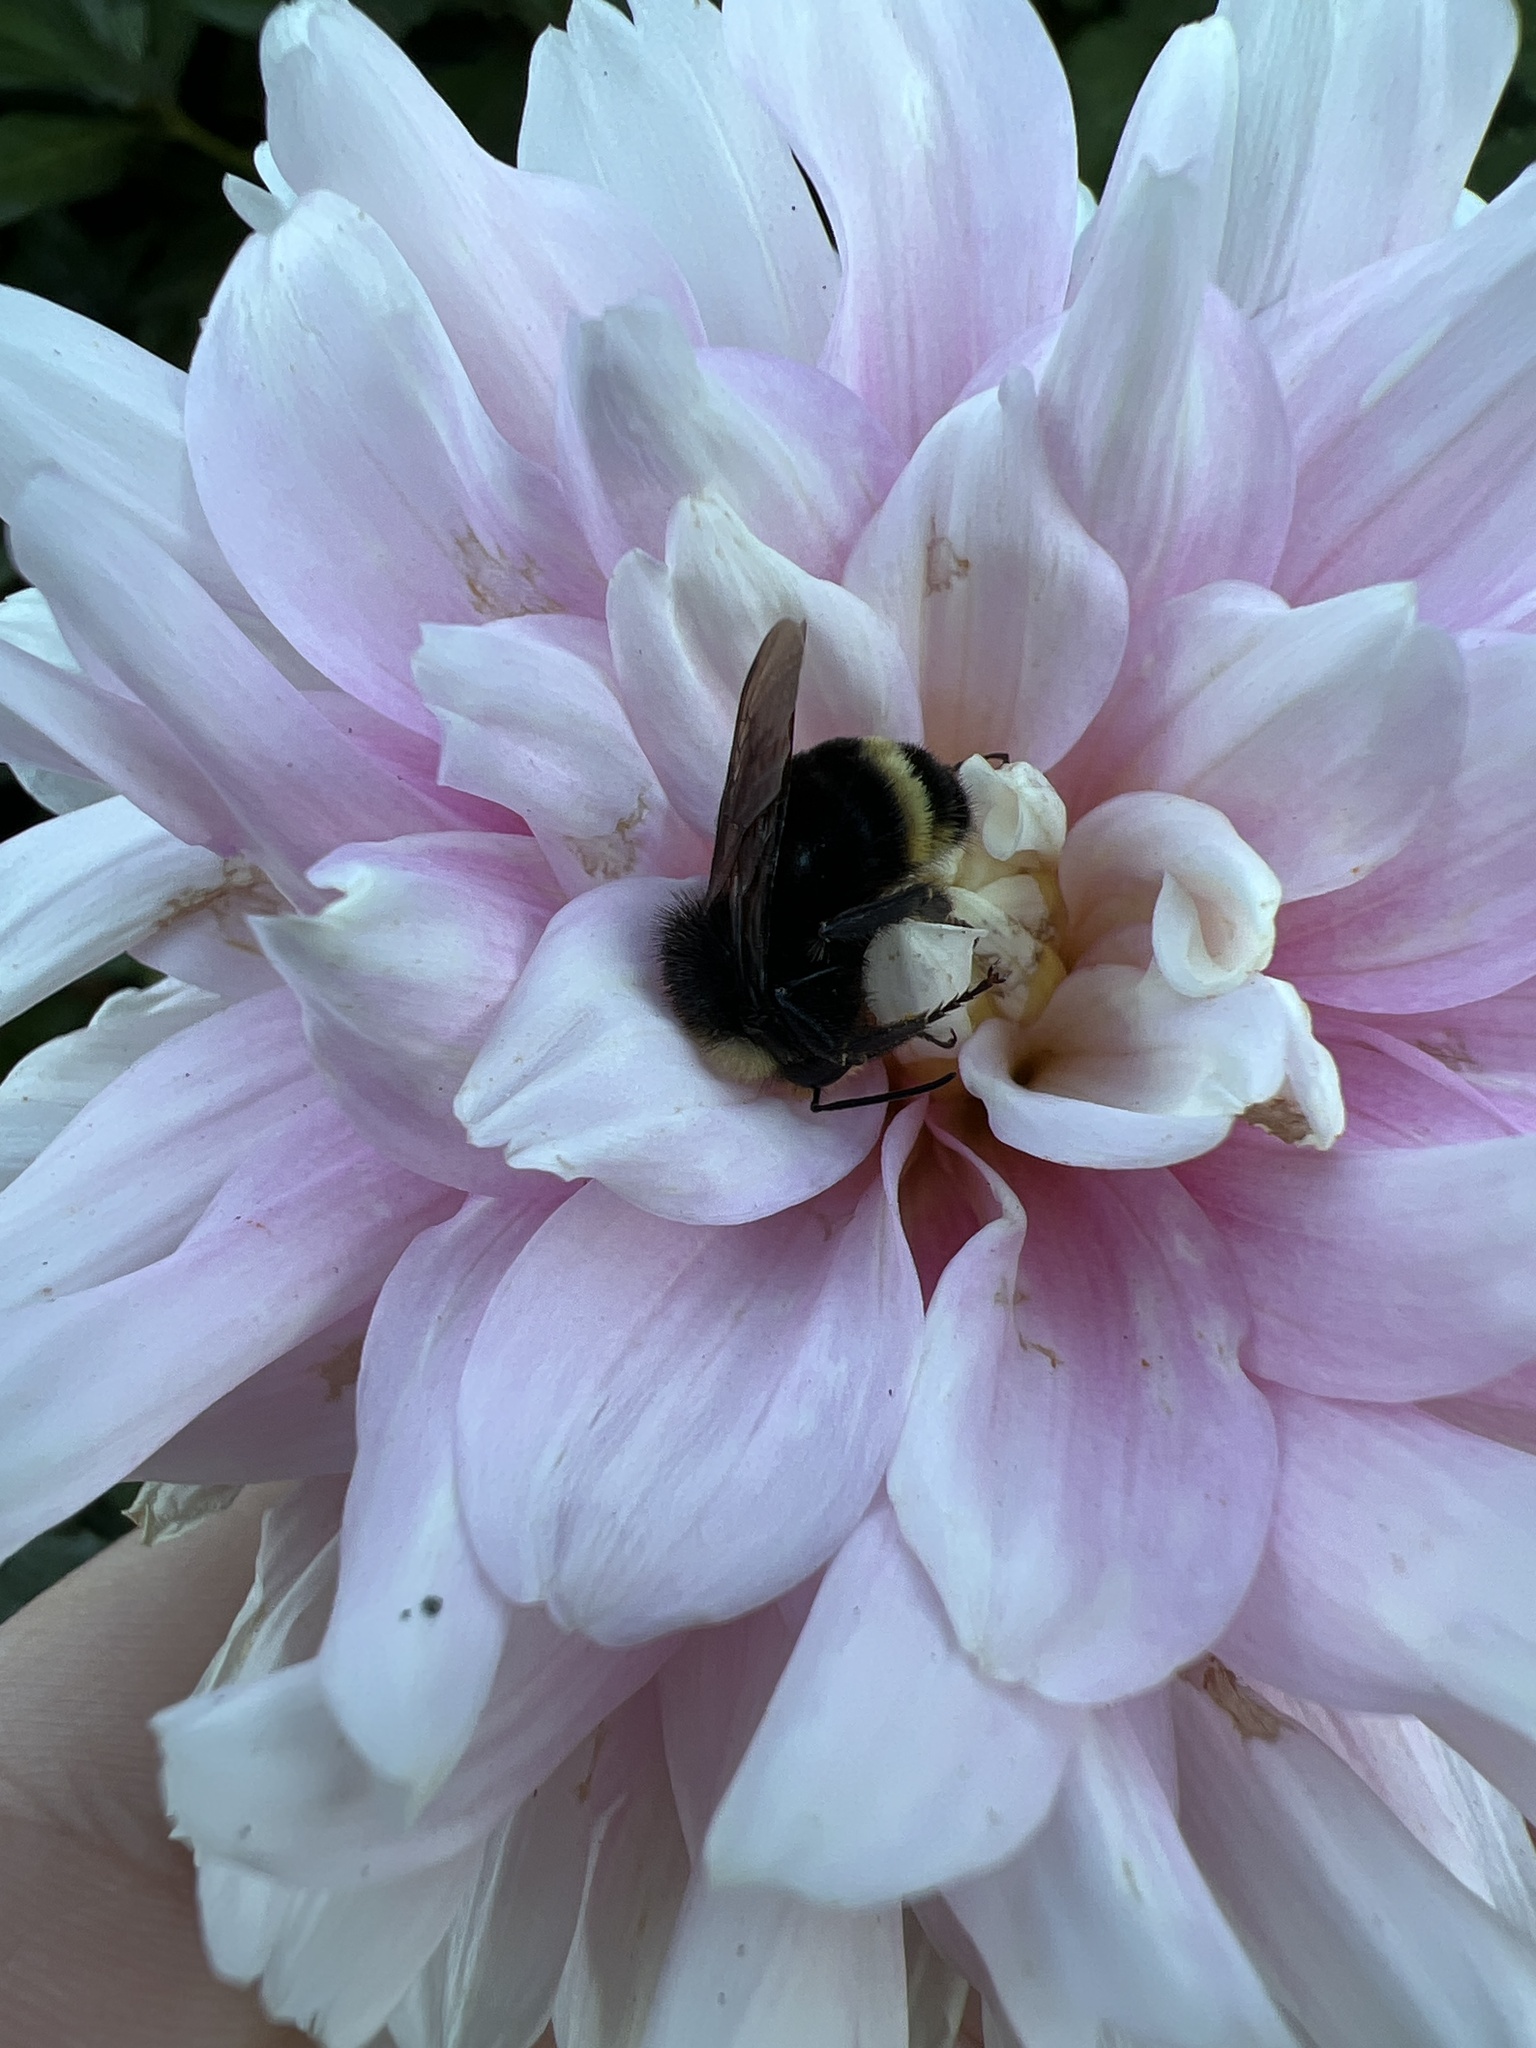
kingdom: Animalia
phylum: Arthropoda
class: Insecta
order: Hymenoptera
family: Apidae
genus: Bombus
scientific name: Bombus vosnesenskii
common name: Vosnesensky bumble bee
